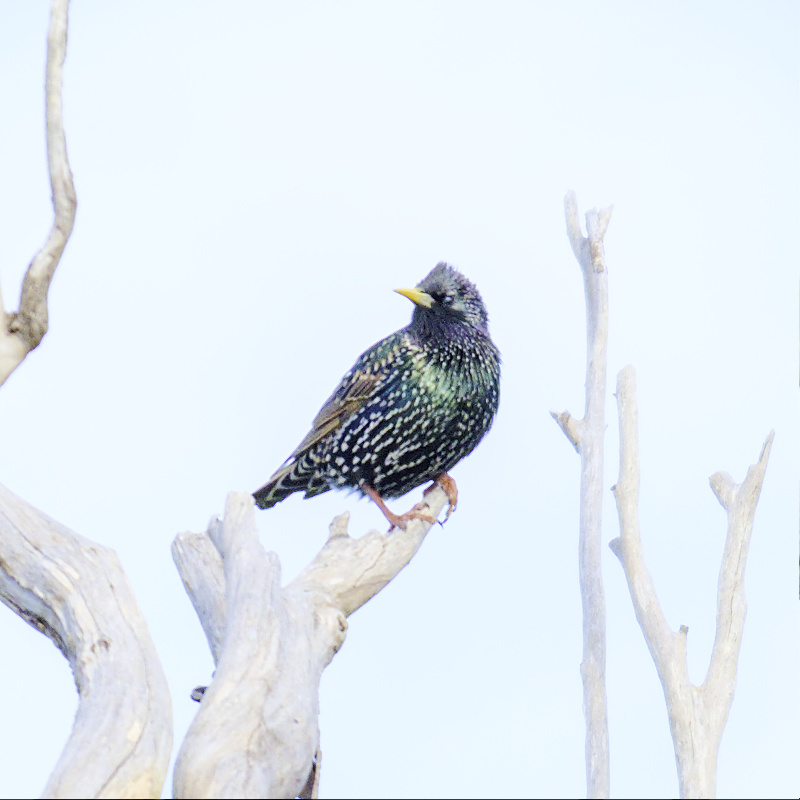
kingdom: Animalia
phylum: Chordata
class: Aves
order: Passeriformes
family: Sturnidae
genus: Sturnus
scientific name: Sturnus vulgaris
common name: Common starling
